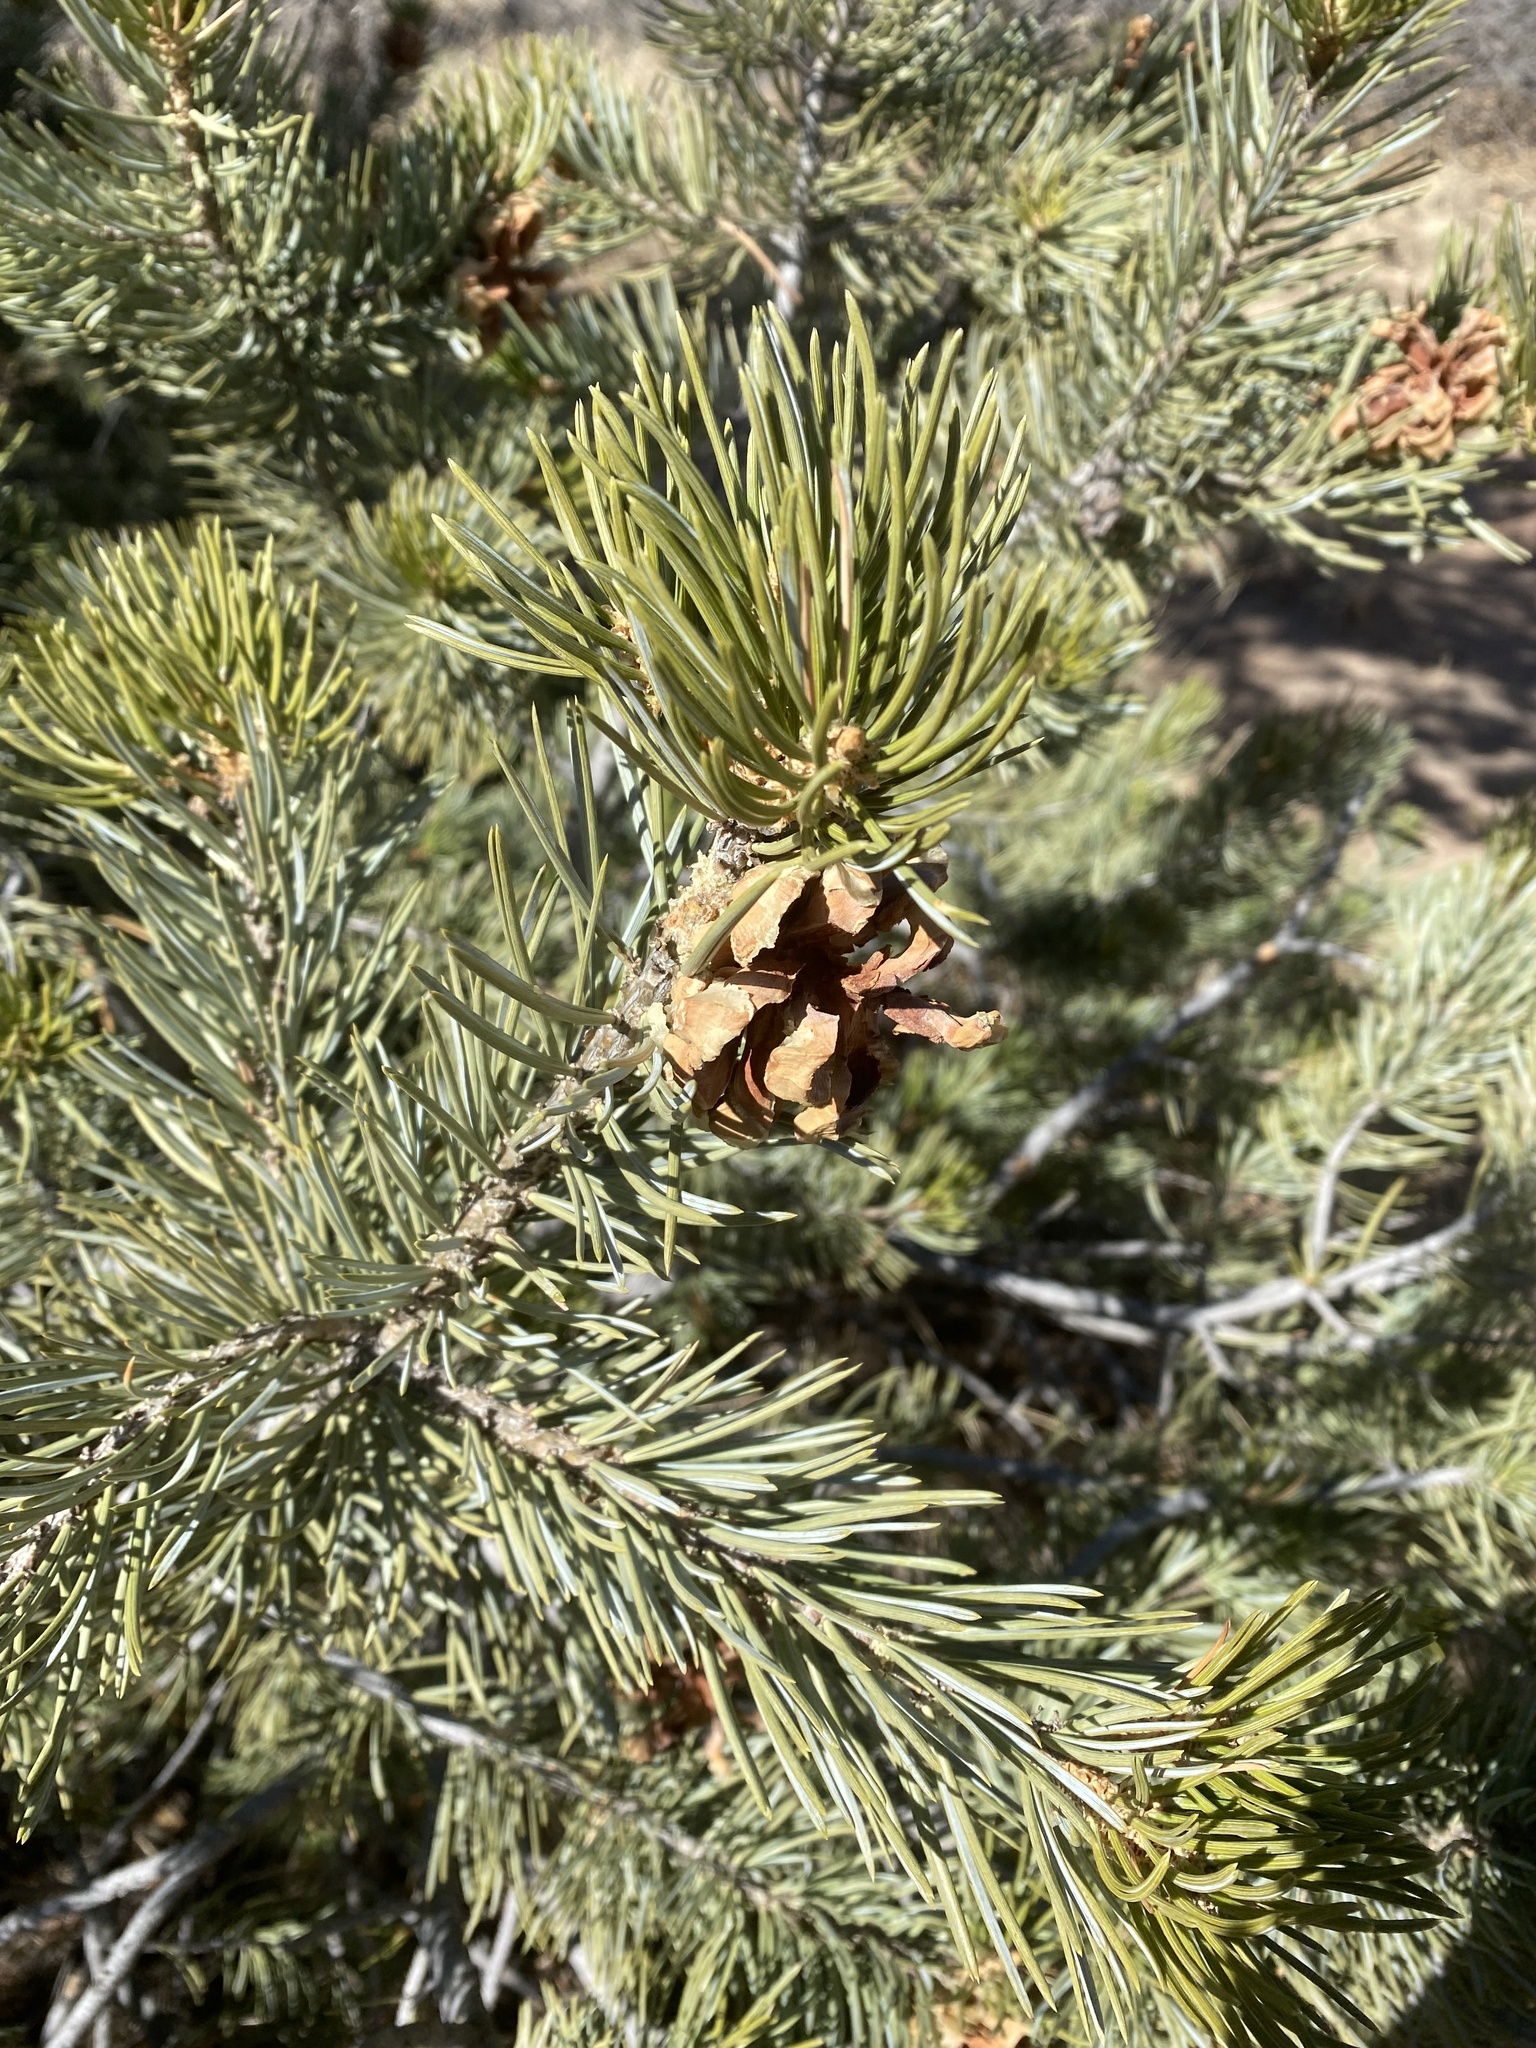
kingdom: Plantae
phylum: Tracheophyta
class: Pinopsida
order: Pinales
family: Pinaceae
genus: Pinus
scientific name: Pinus edulis
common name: Colorado pinyon
